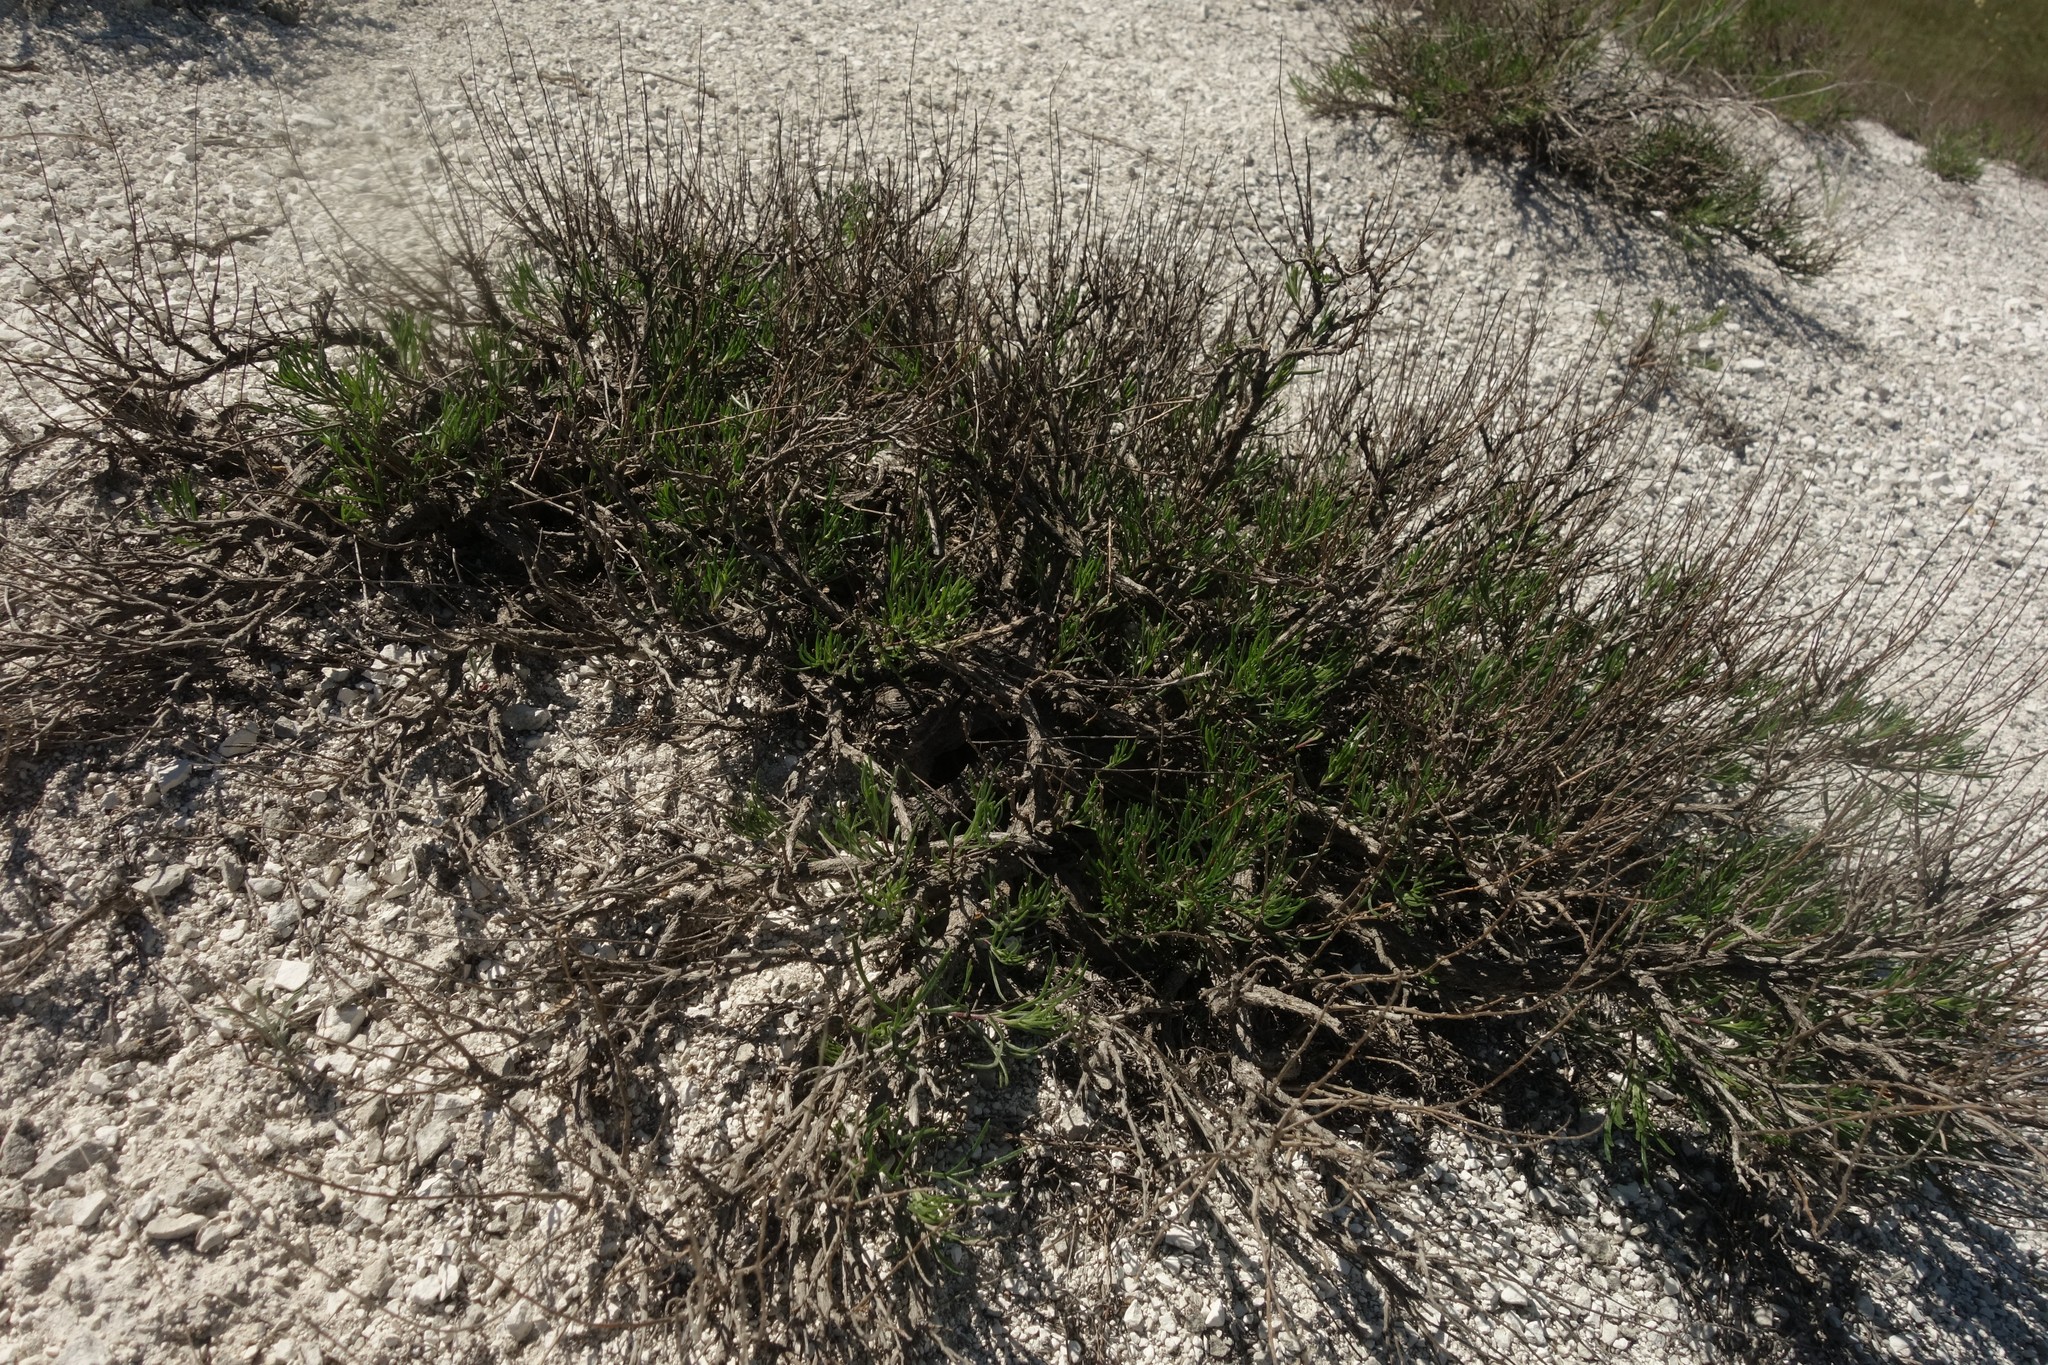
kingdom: Plantae
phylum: Tracheophyta
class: Magnoliopsida
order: Asterales
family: Asteraceae
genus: Artemisia
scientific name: Artemisia salsoloides
